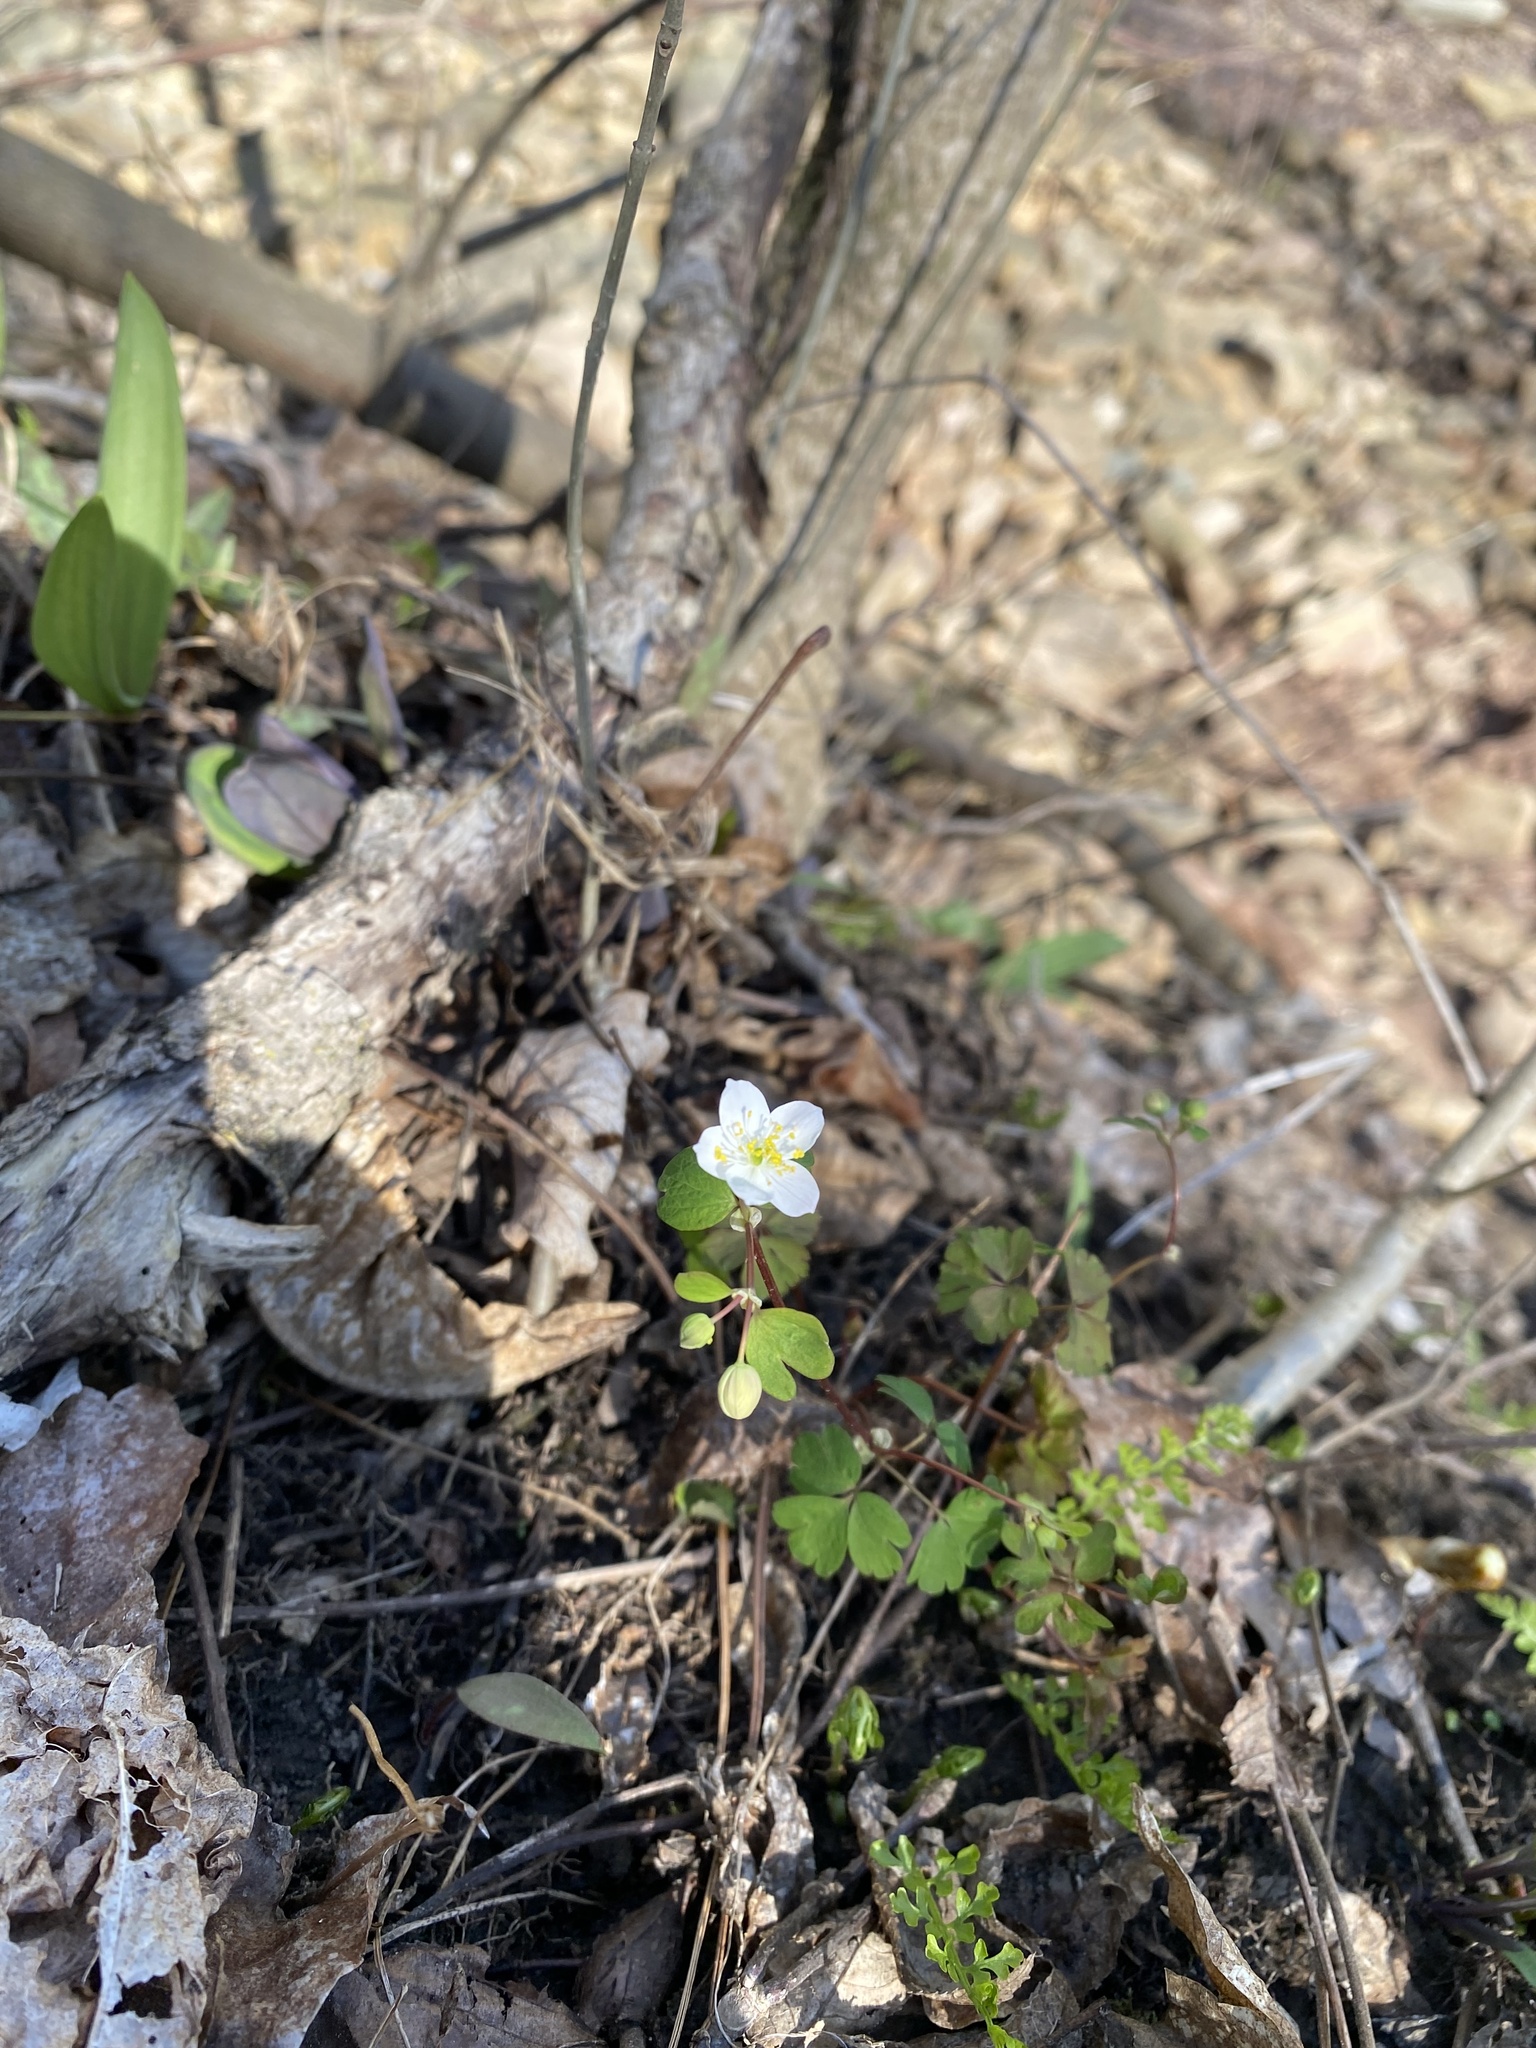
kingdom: Plantae
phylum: Tracheophyta
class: Magnoliopsida
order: Ranunculales
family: Ranunculaceae
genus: Enemion
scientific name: Enemion biternatum
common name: Eastern false rue-anemone
